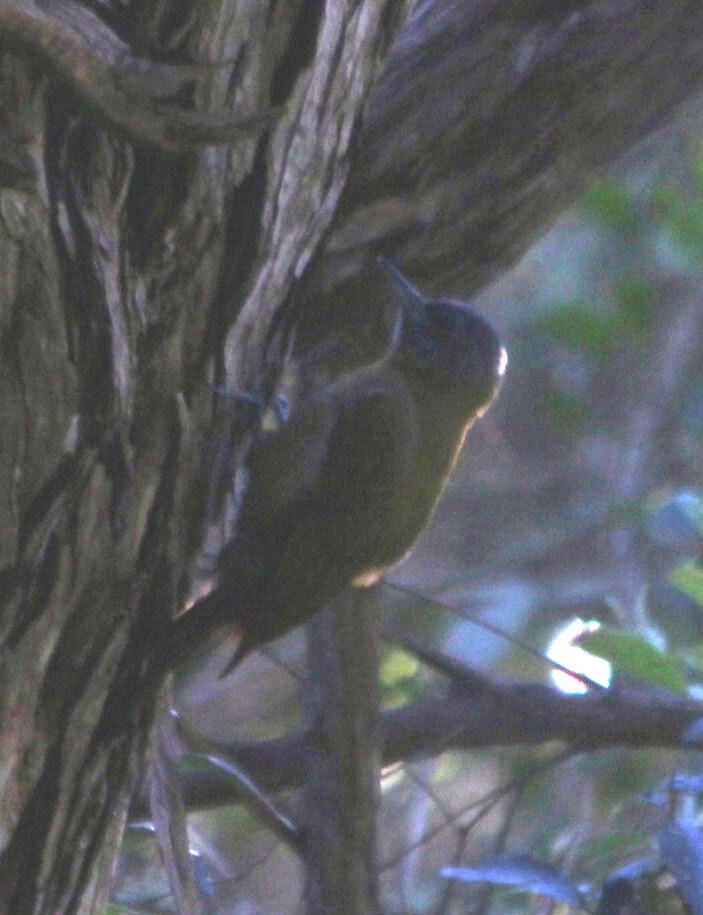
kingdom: Animalia
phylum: Chordata
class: Aves
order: Piciformes
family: Picidae
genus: Dendropicos
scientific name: Dendropicos griseocephalus
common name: Olive woodpecker
